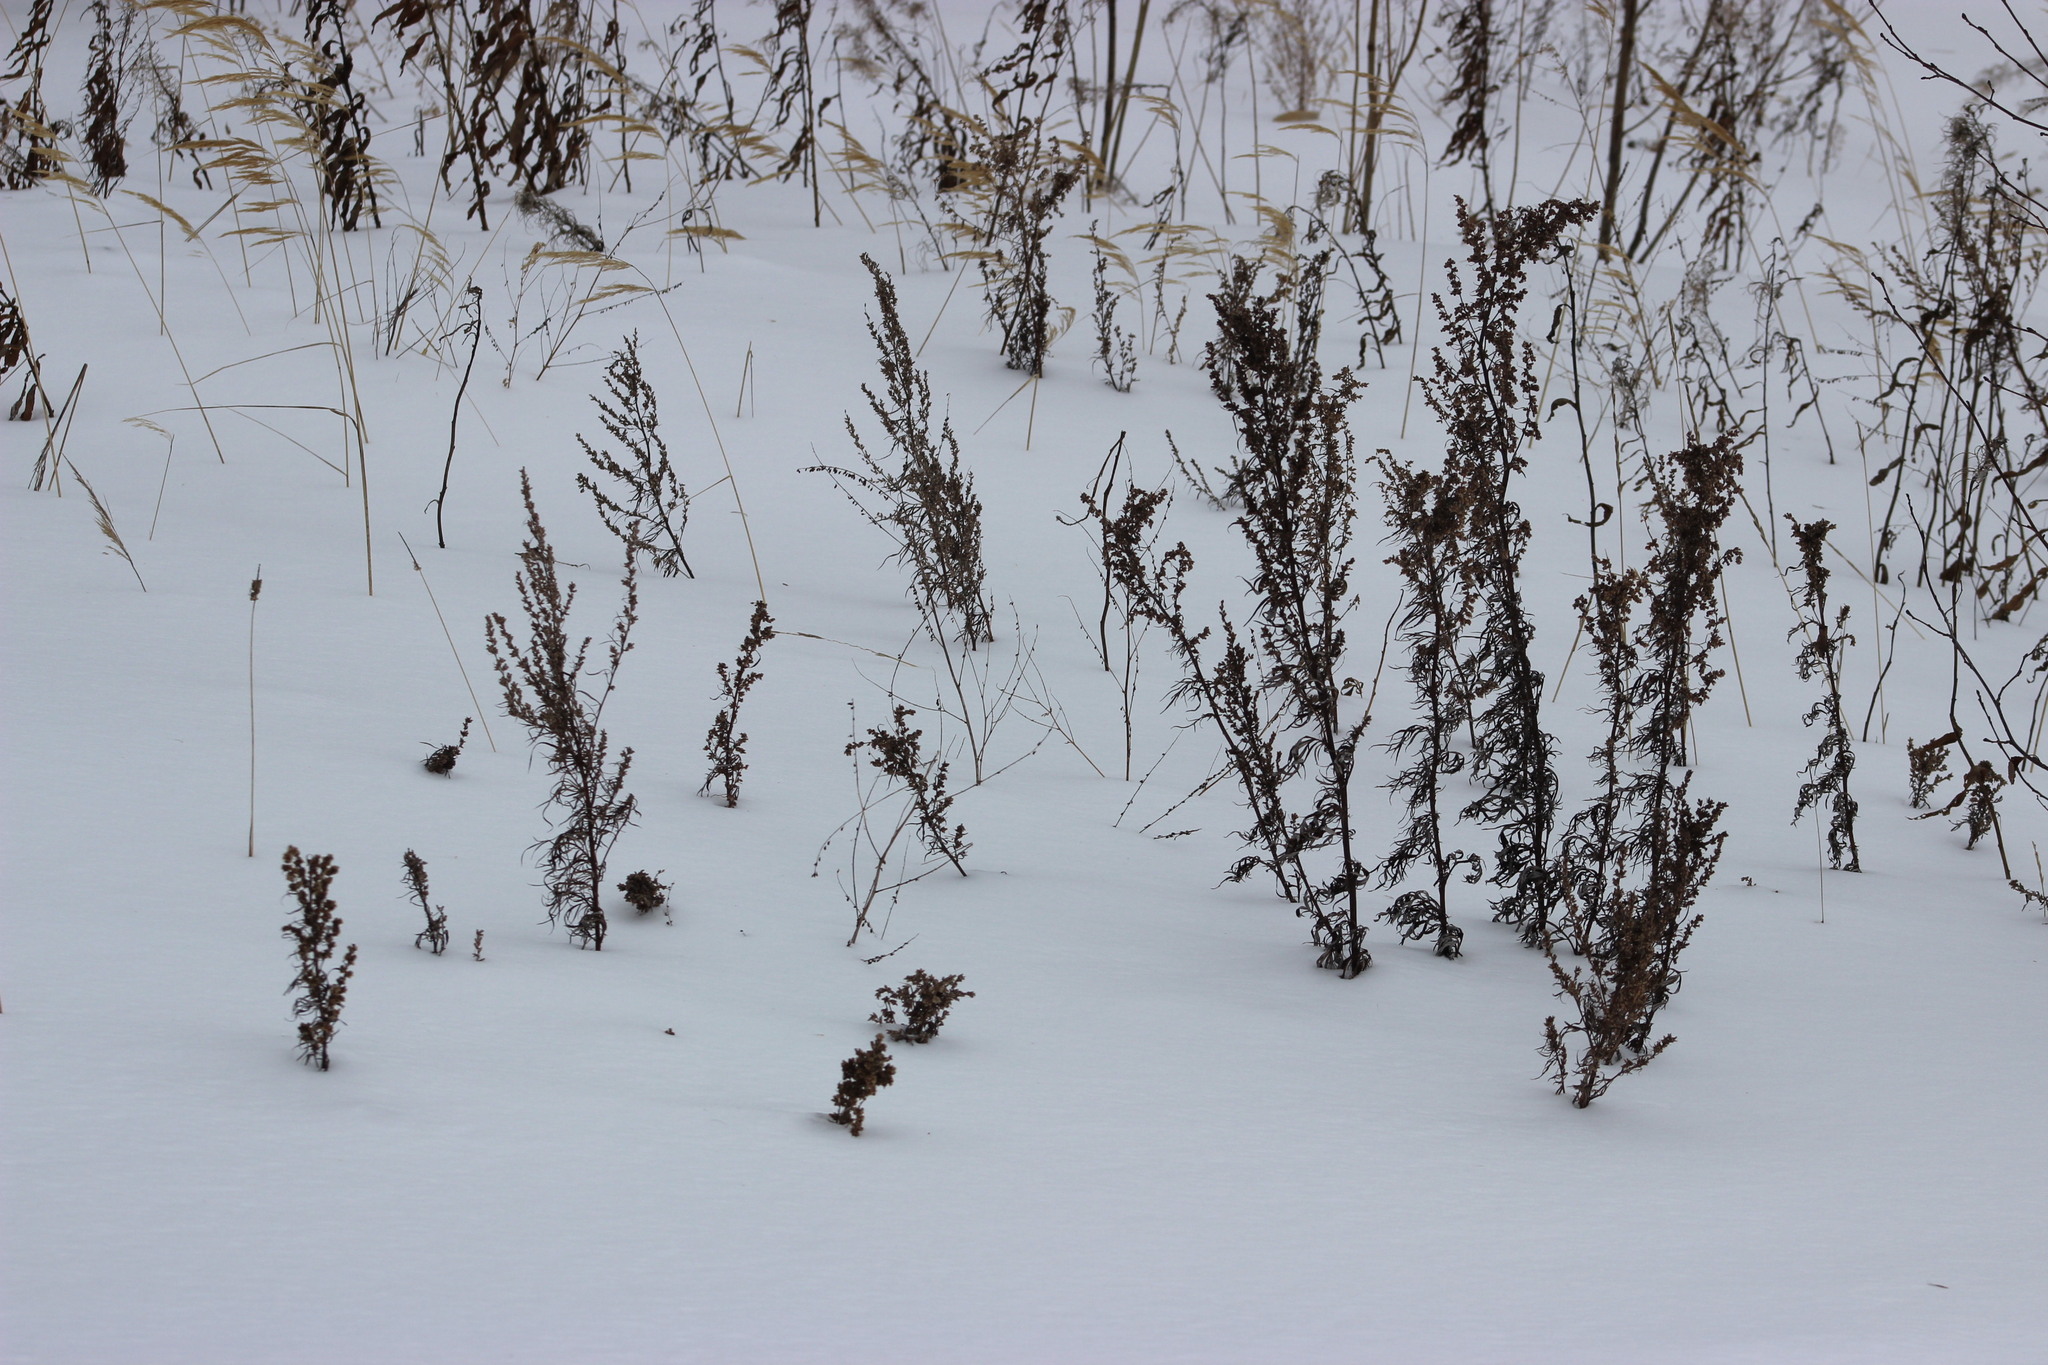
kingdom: Plantae
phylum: Tracheophyta
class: Magnoliopsida
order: Asterales
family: Asteraceae
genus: Artemisia
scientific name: Artemisia vulgaris
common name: Mugwort
